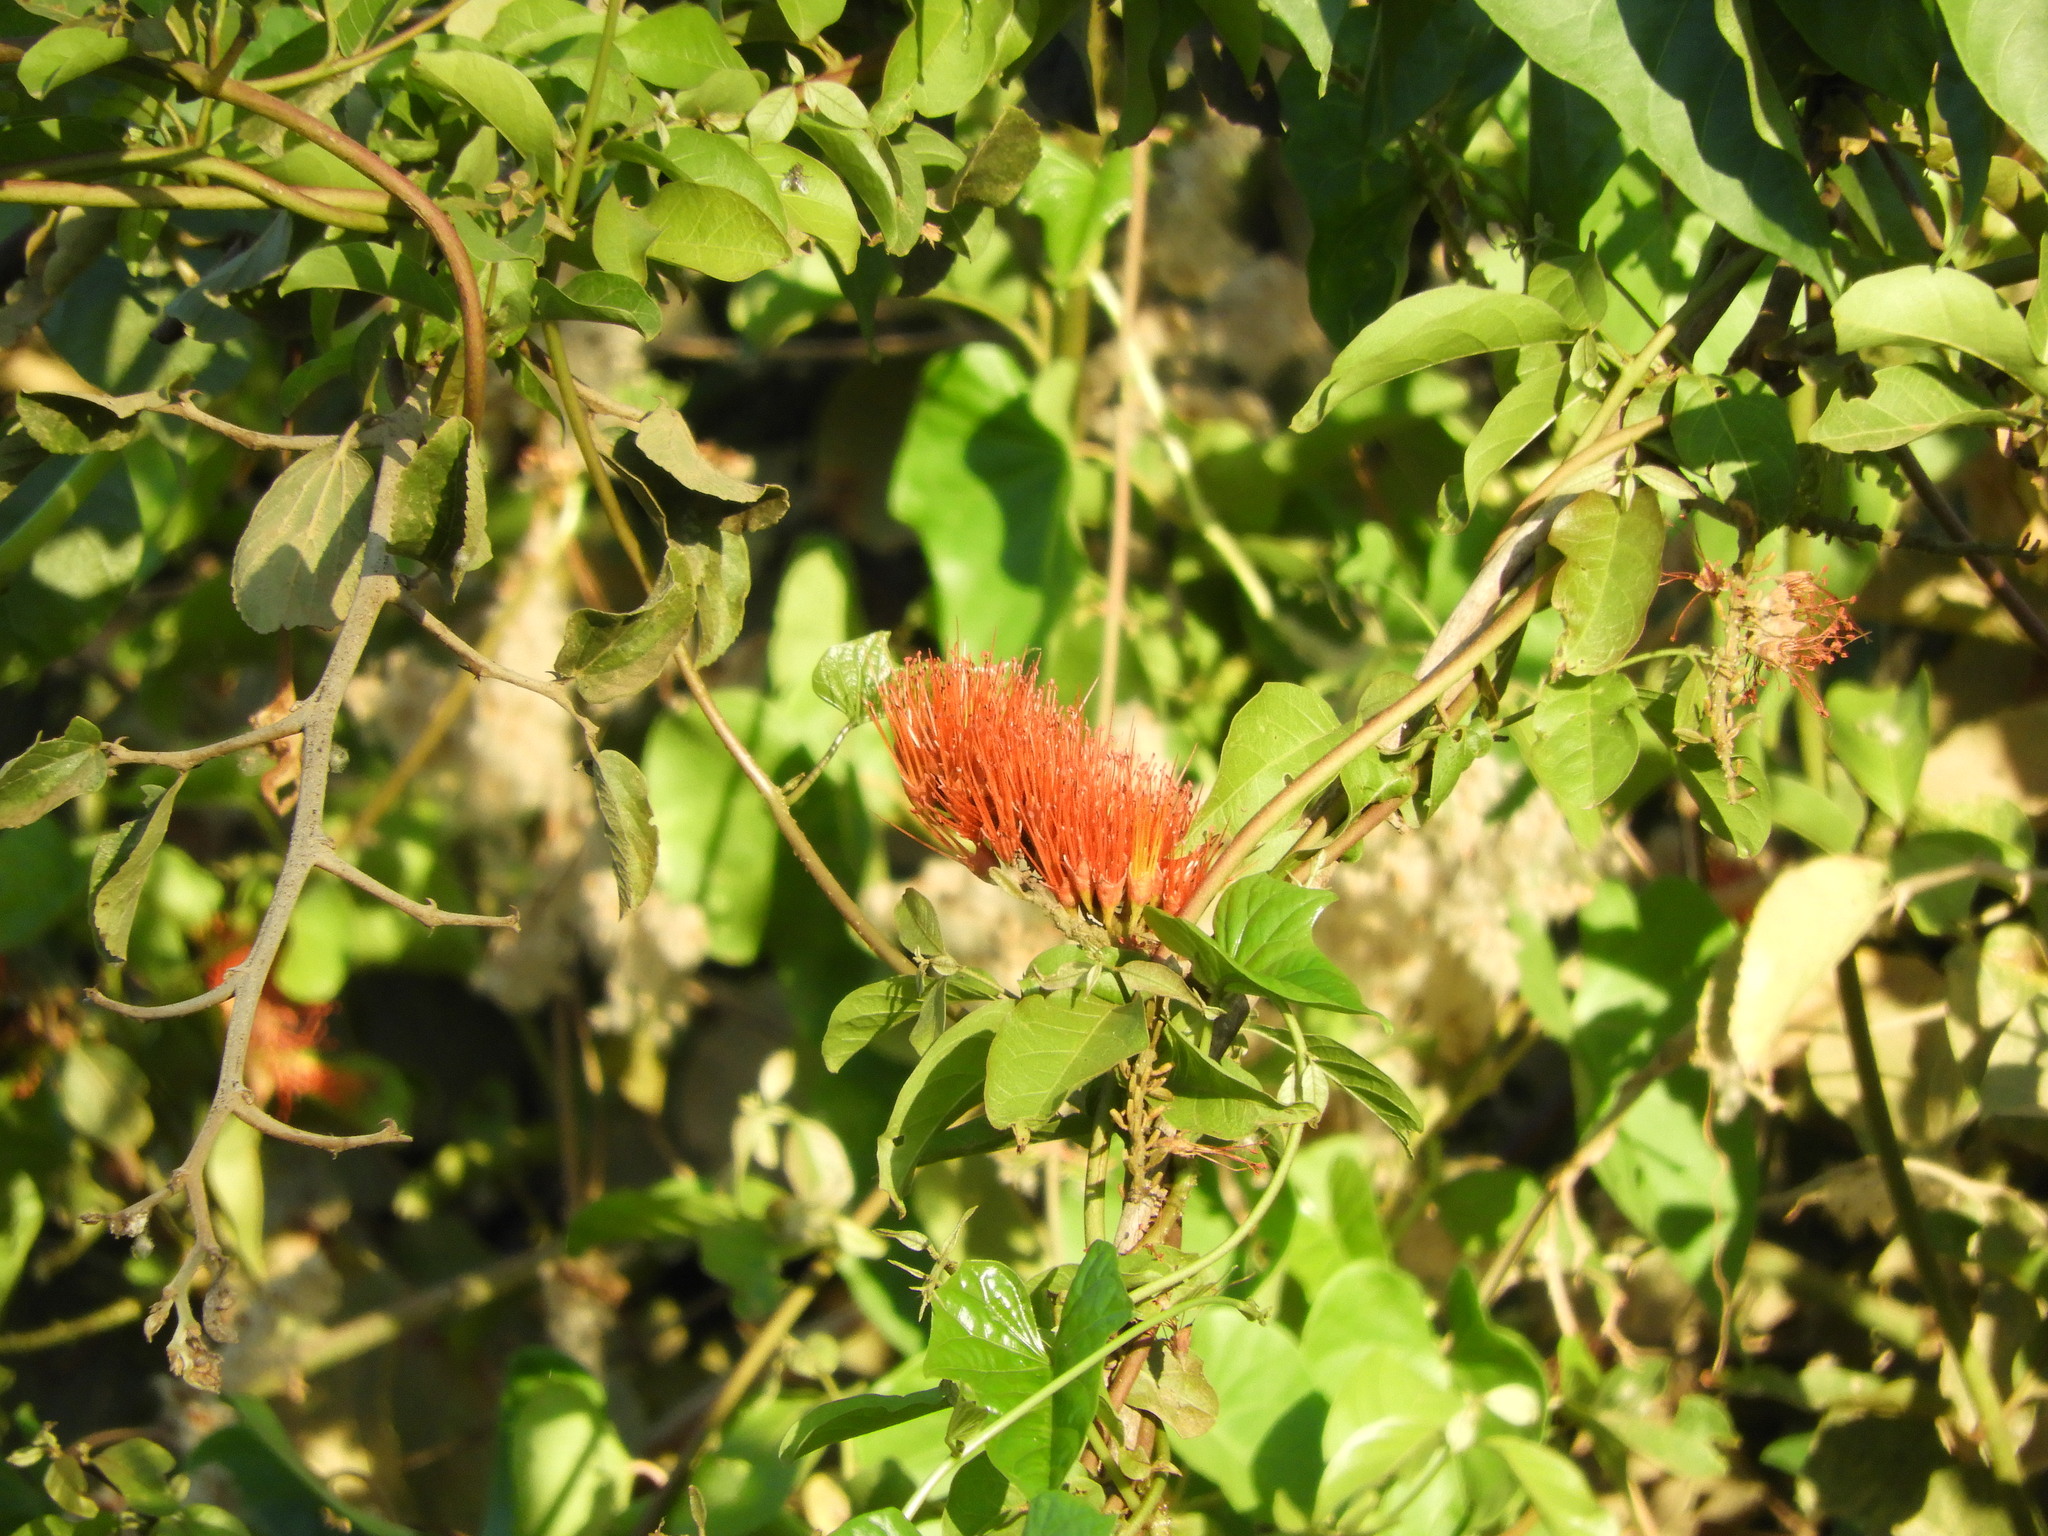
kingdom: Plantae
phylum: Tracheophyta
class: Magnoliopsida
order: Myrtales
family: Combretaceae
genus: Combretum
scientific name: Combretum farinosum
